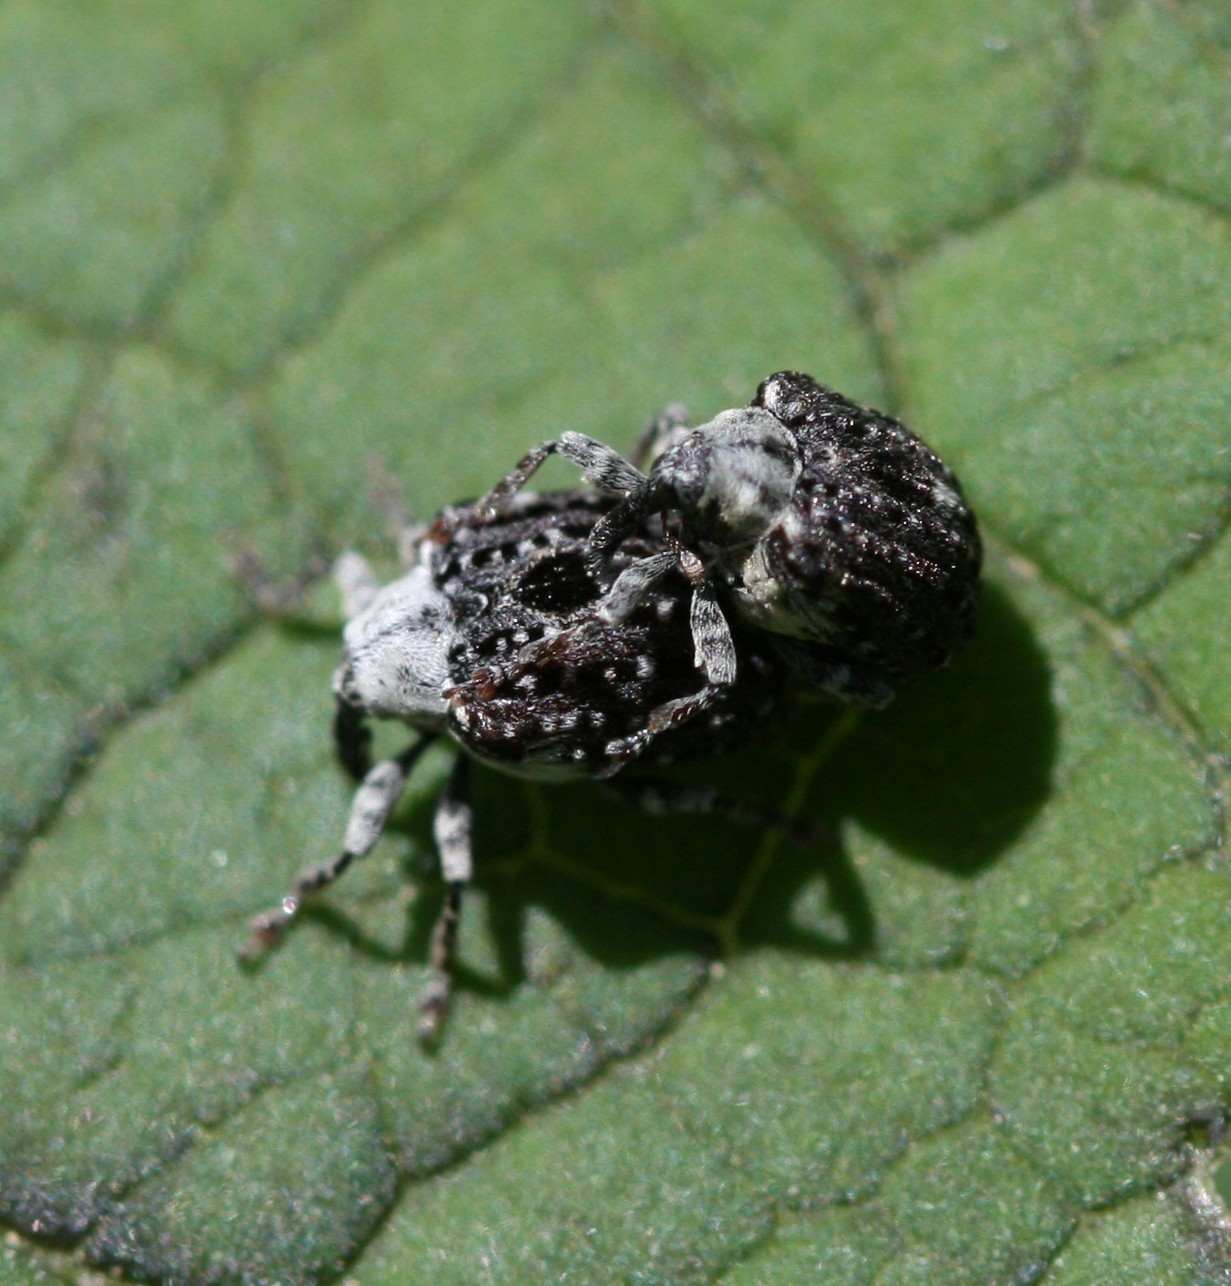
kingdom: Animalia
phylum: Arthropoda
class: Insecta
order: Coleoptera
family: Curculionidae
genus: Cionus
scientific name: Cionus scrophulariae
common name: Common figwort weevil
